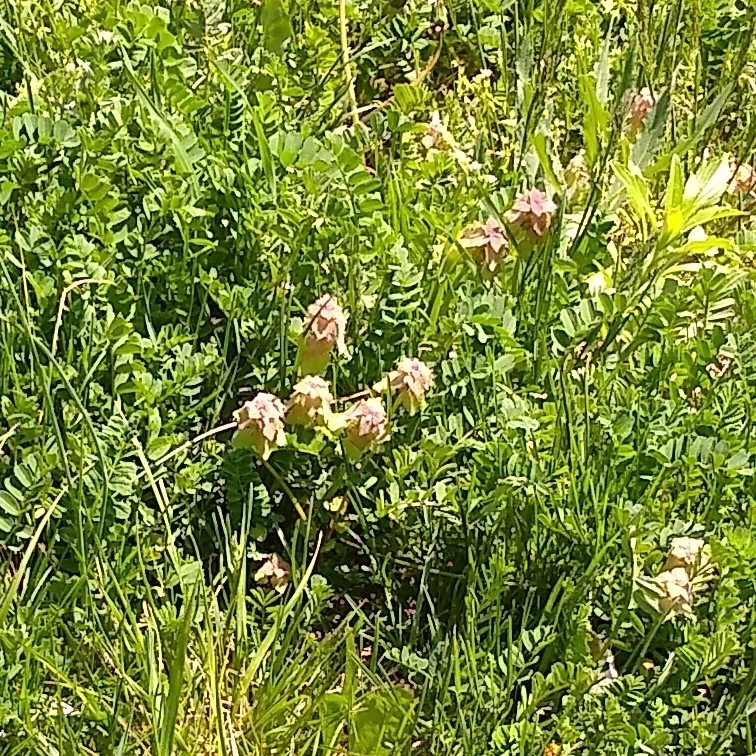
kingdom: Plantae
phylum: Tracheophyta
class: Magnoliopsida
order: Lamiales
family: Lamiaceae
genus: Lamium
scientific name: Lamium purpureum
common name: Red dead-nettle
